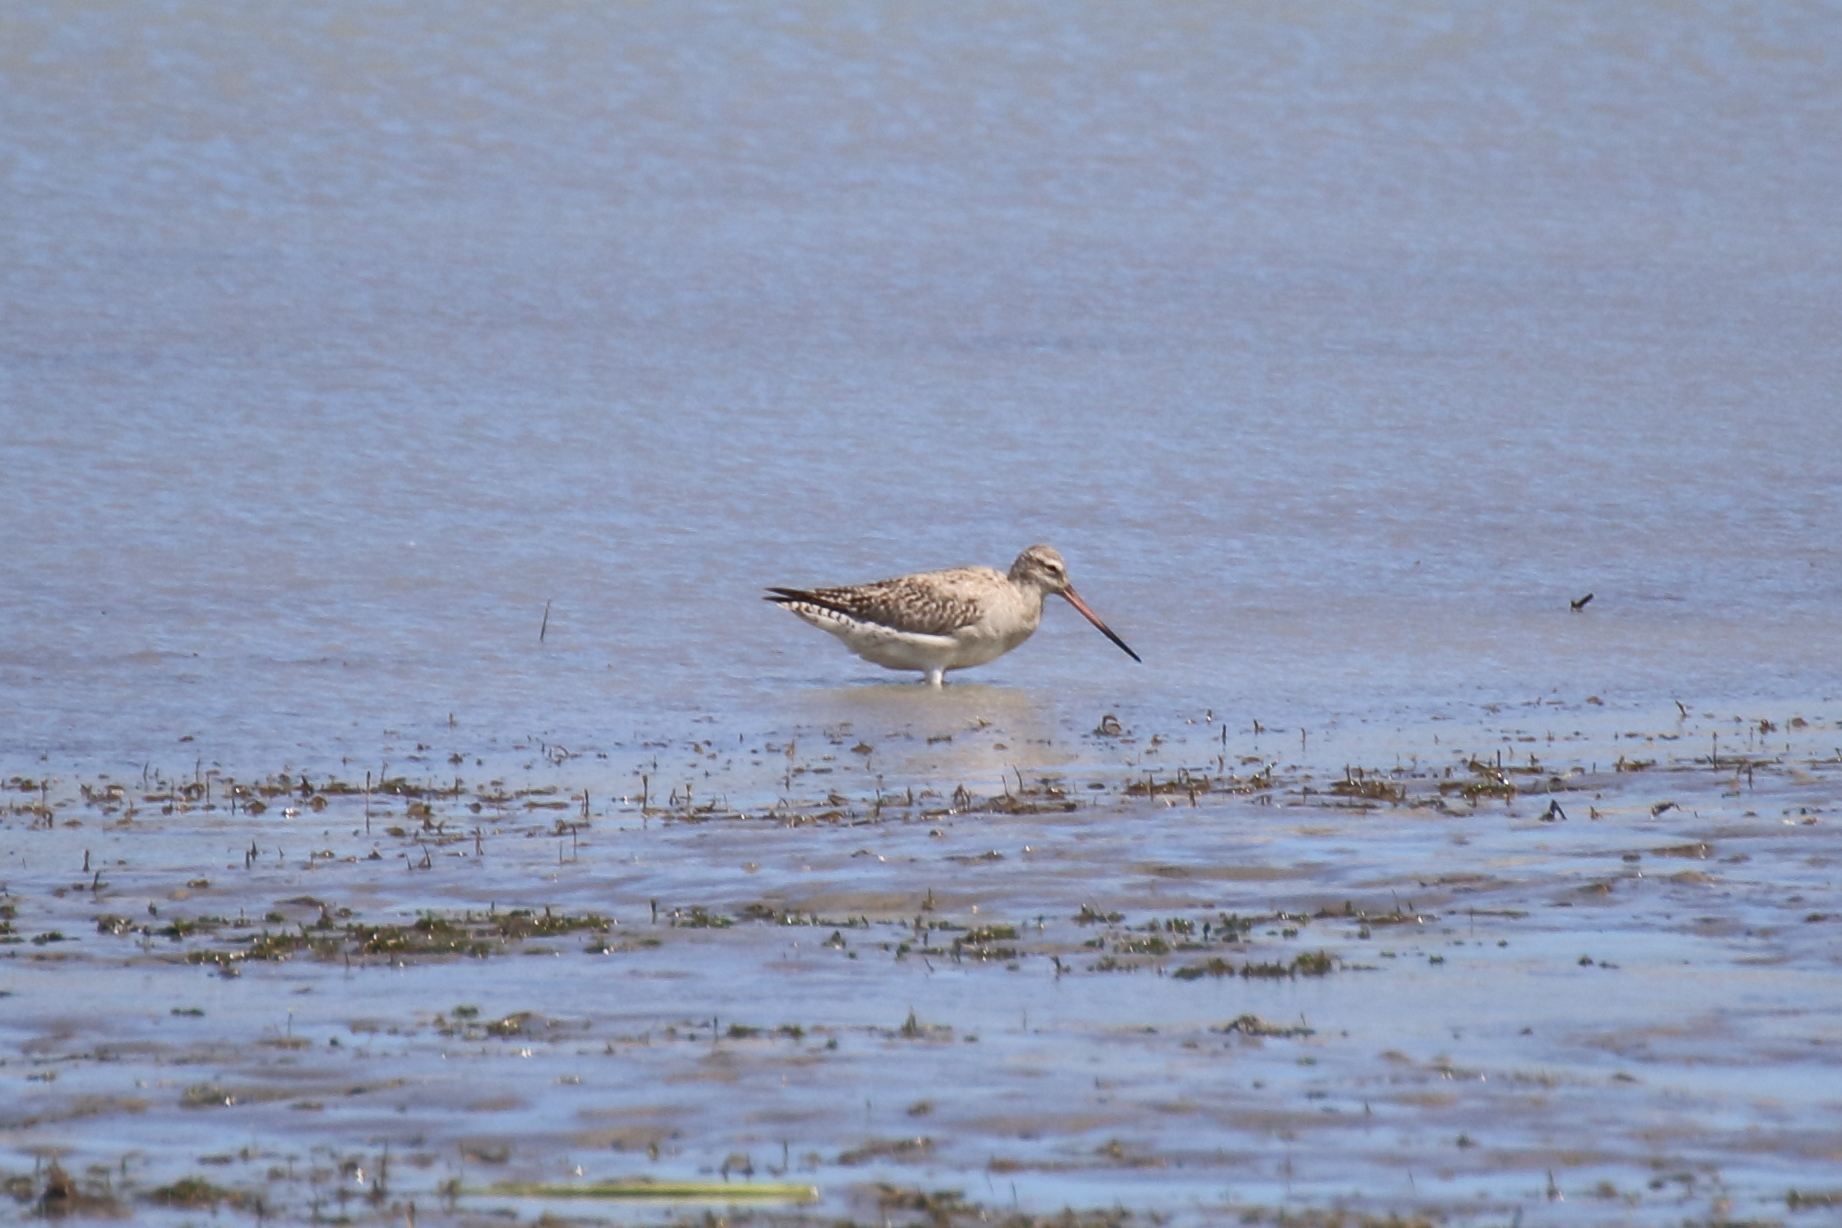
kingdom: Animalia
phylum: Chordata
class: Aves
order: Charadriiformes
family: Scolopacidae
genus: Limosa
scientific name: Limosa lapponica
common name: Bar-tailed godwit
